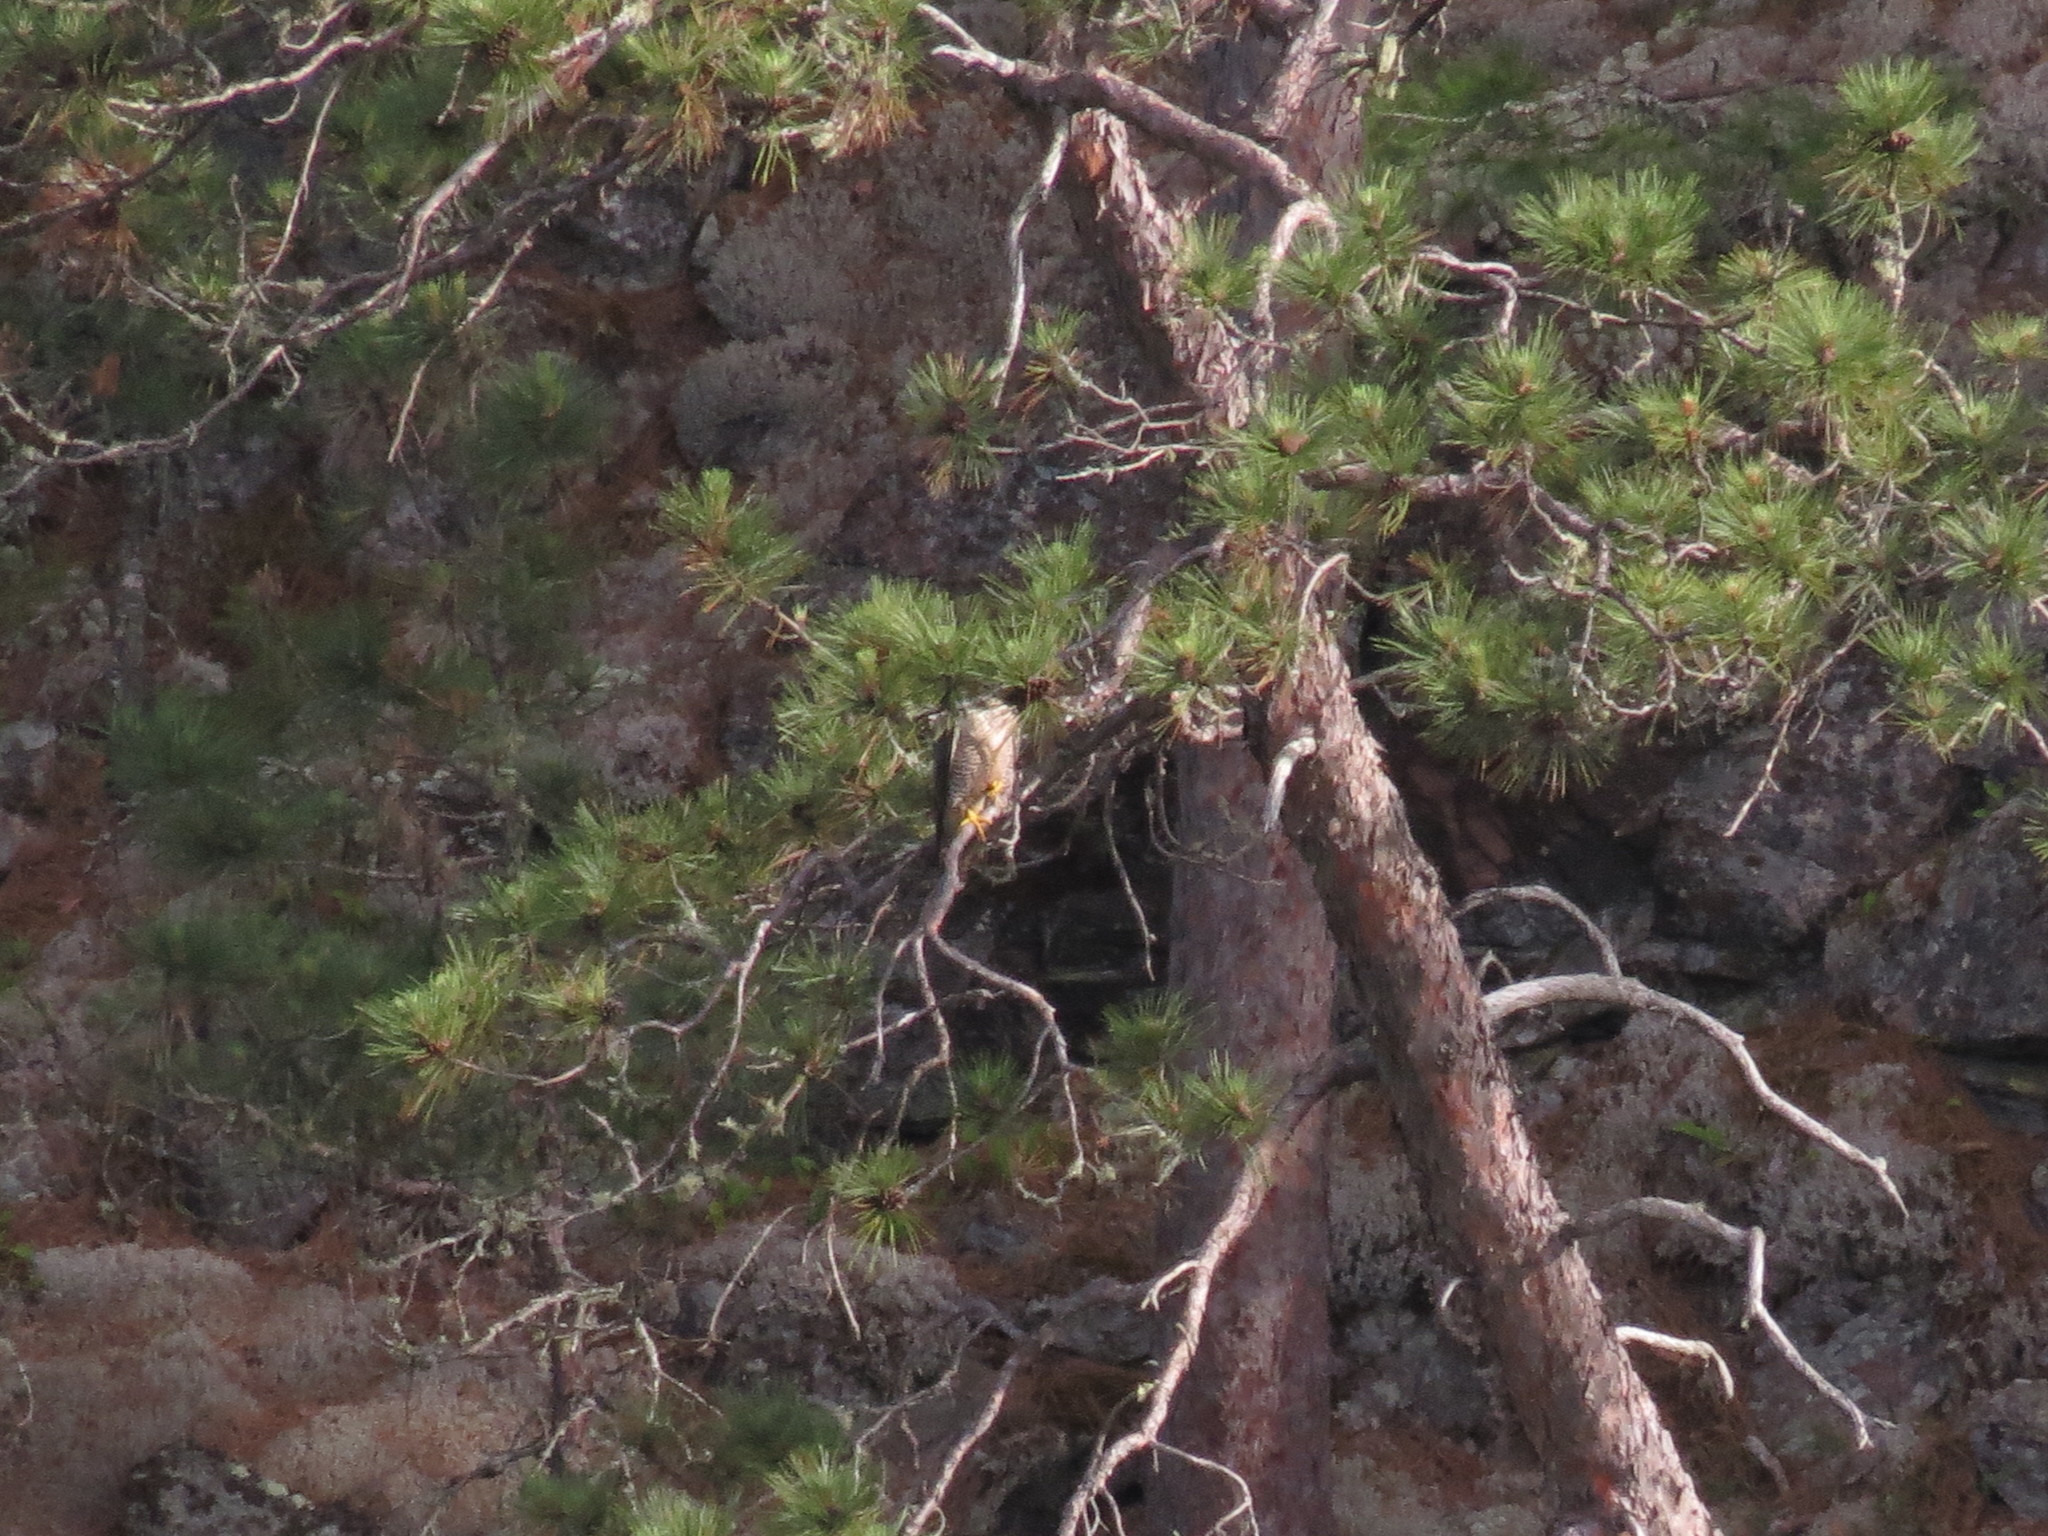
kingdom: Animalia
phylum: Chordata
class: Aves
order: Falconiformes
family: Falconidae
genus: Falco
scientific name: Falco peregrinus
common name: Peregrine falcon
